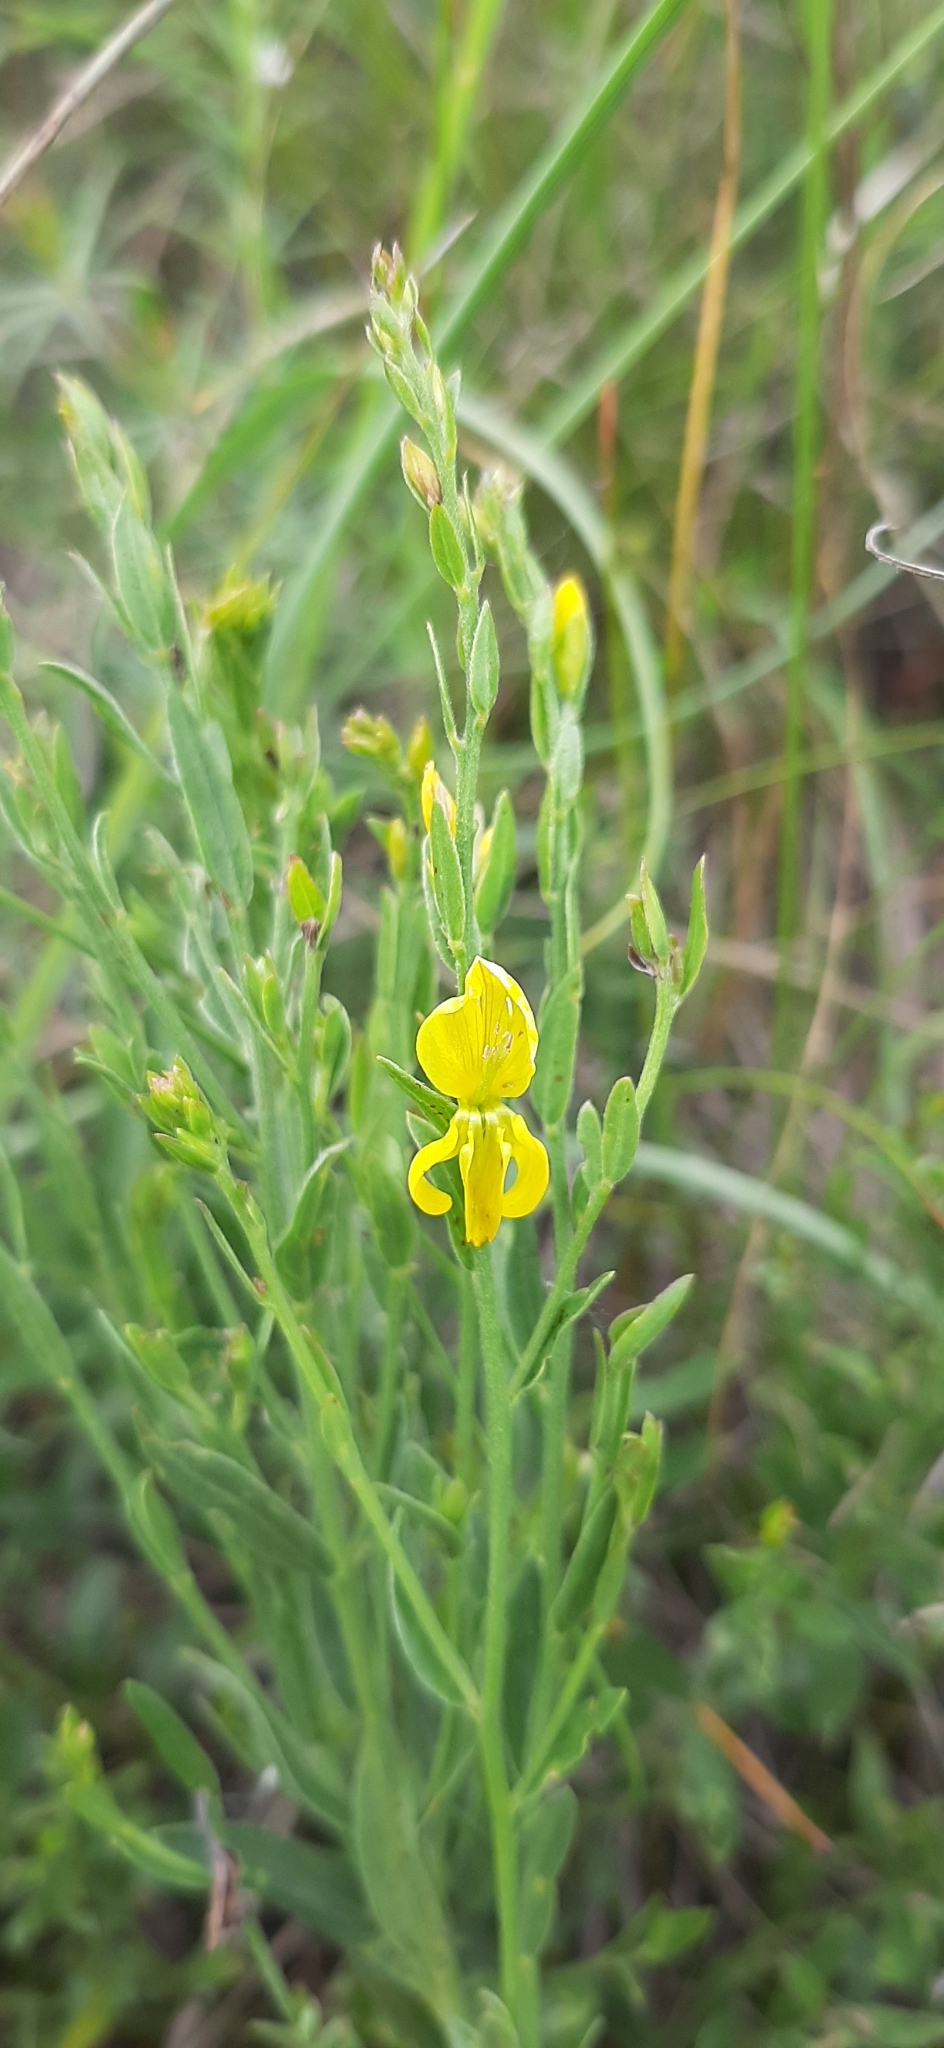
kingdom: Plantae
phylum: Tracheophyta
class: Magnoliopsida
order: Fabales
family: Fabaceae
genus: Genista
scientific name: Genista tinctoria
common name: Dyer's greenweed
